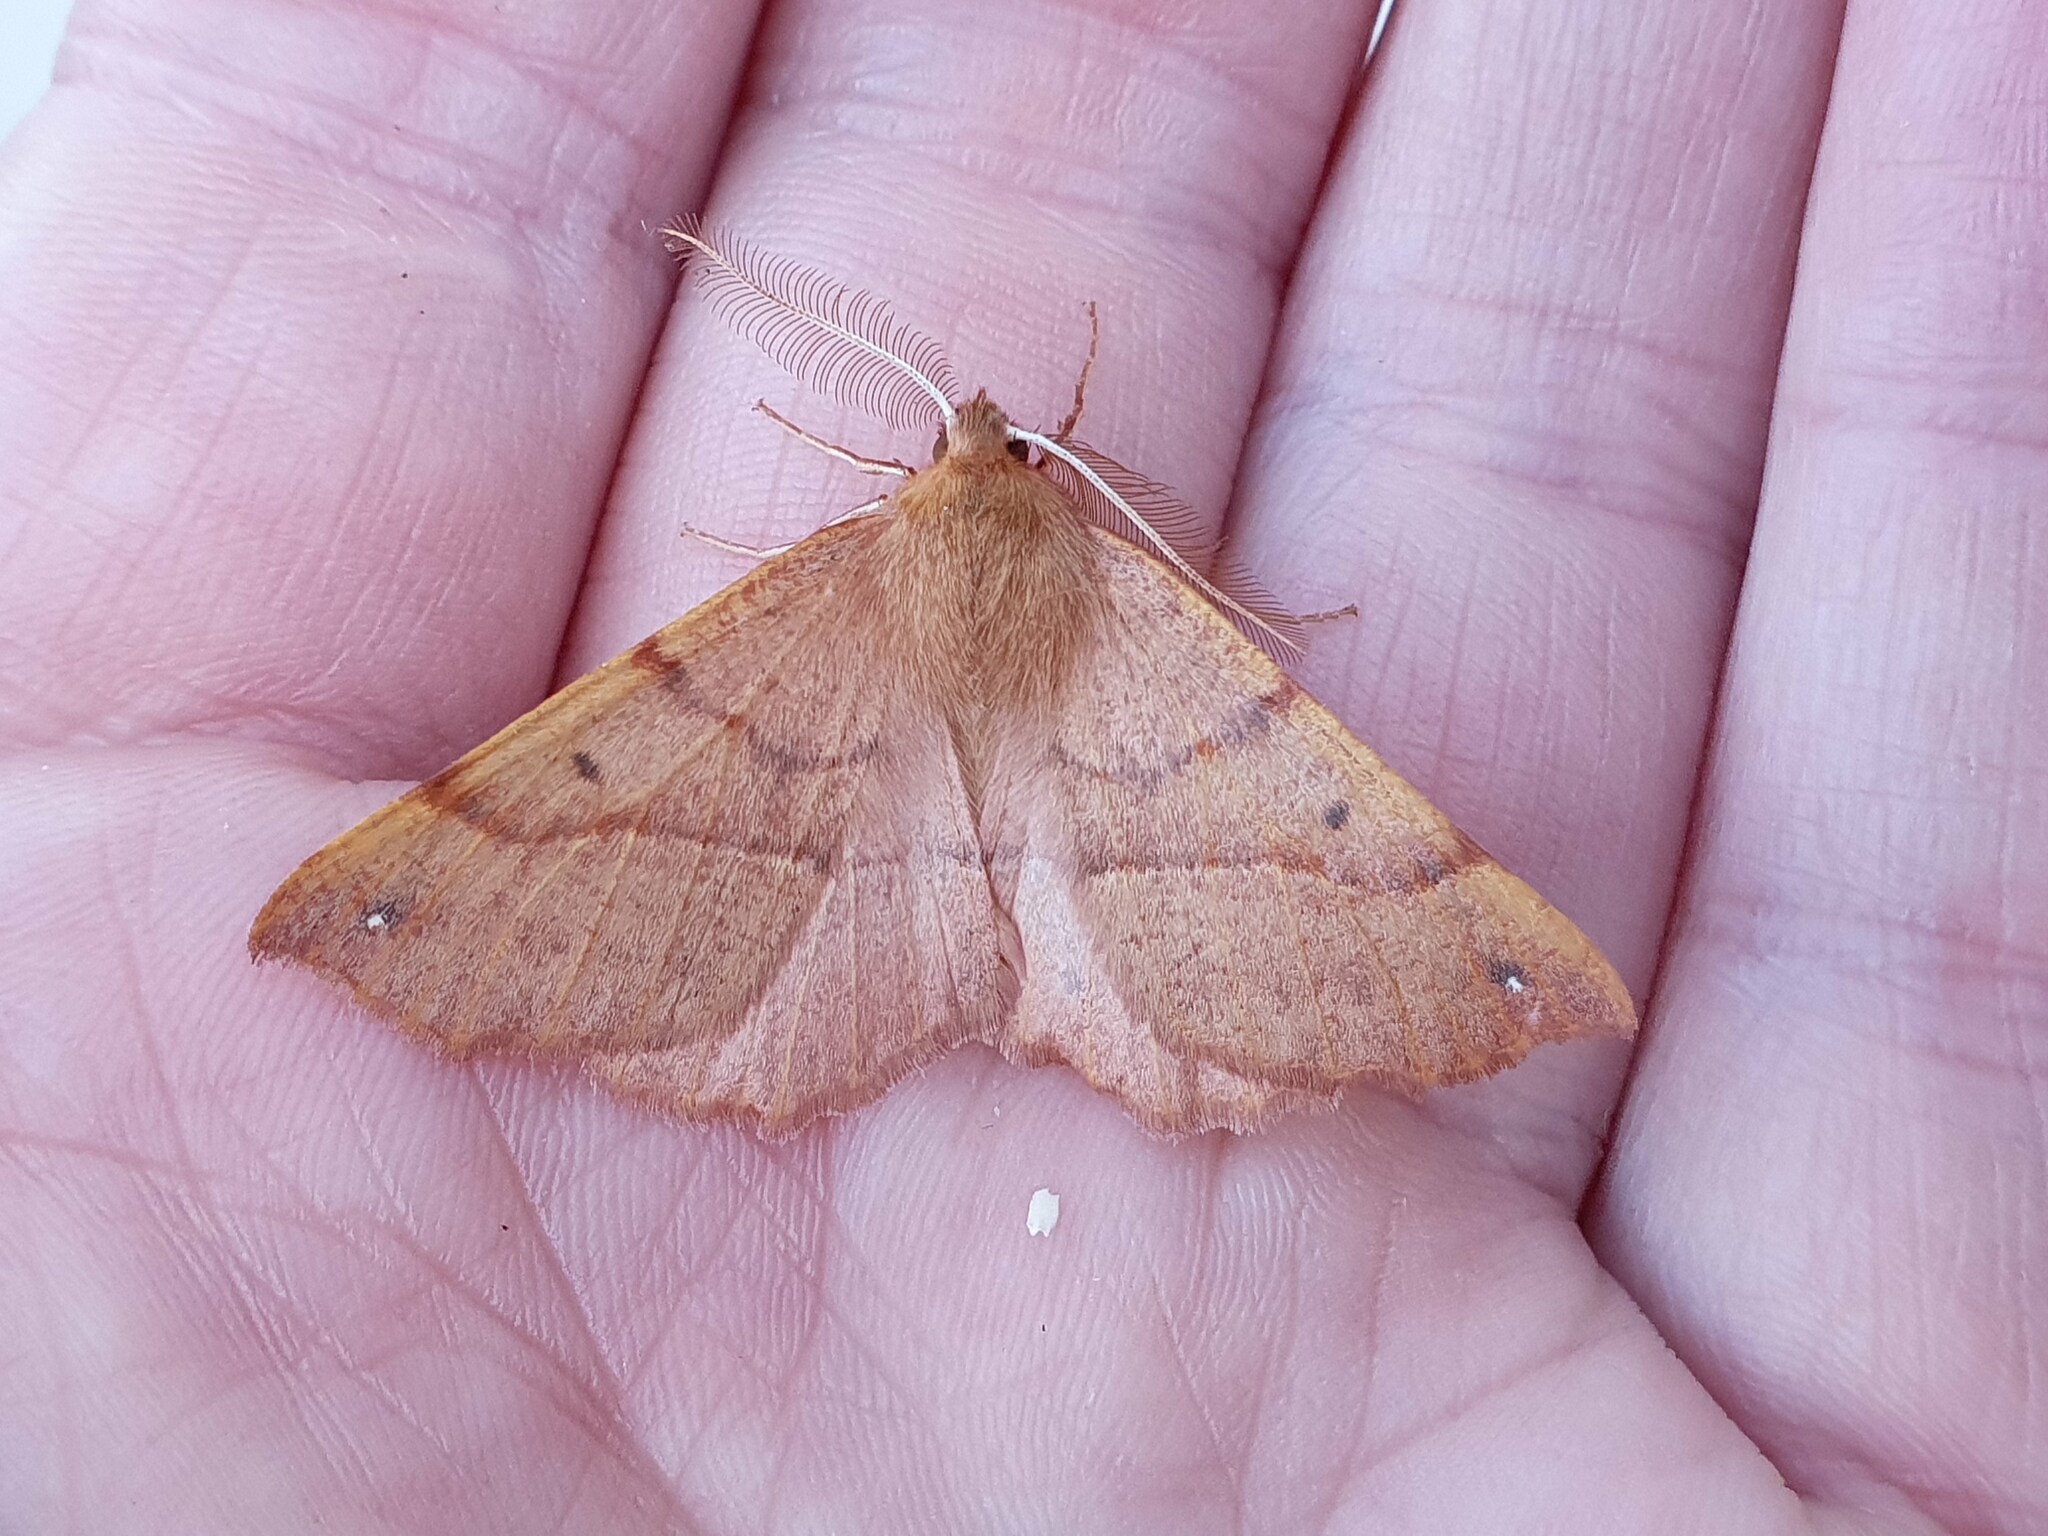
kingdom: Animalia
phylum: Arthropoda
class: Insecta
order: Lepidoptera
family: Geometridae
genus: Colotois
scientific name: Colotois pennaria
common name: Feathered thorn
